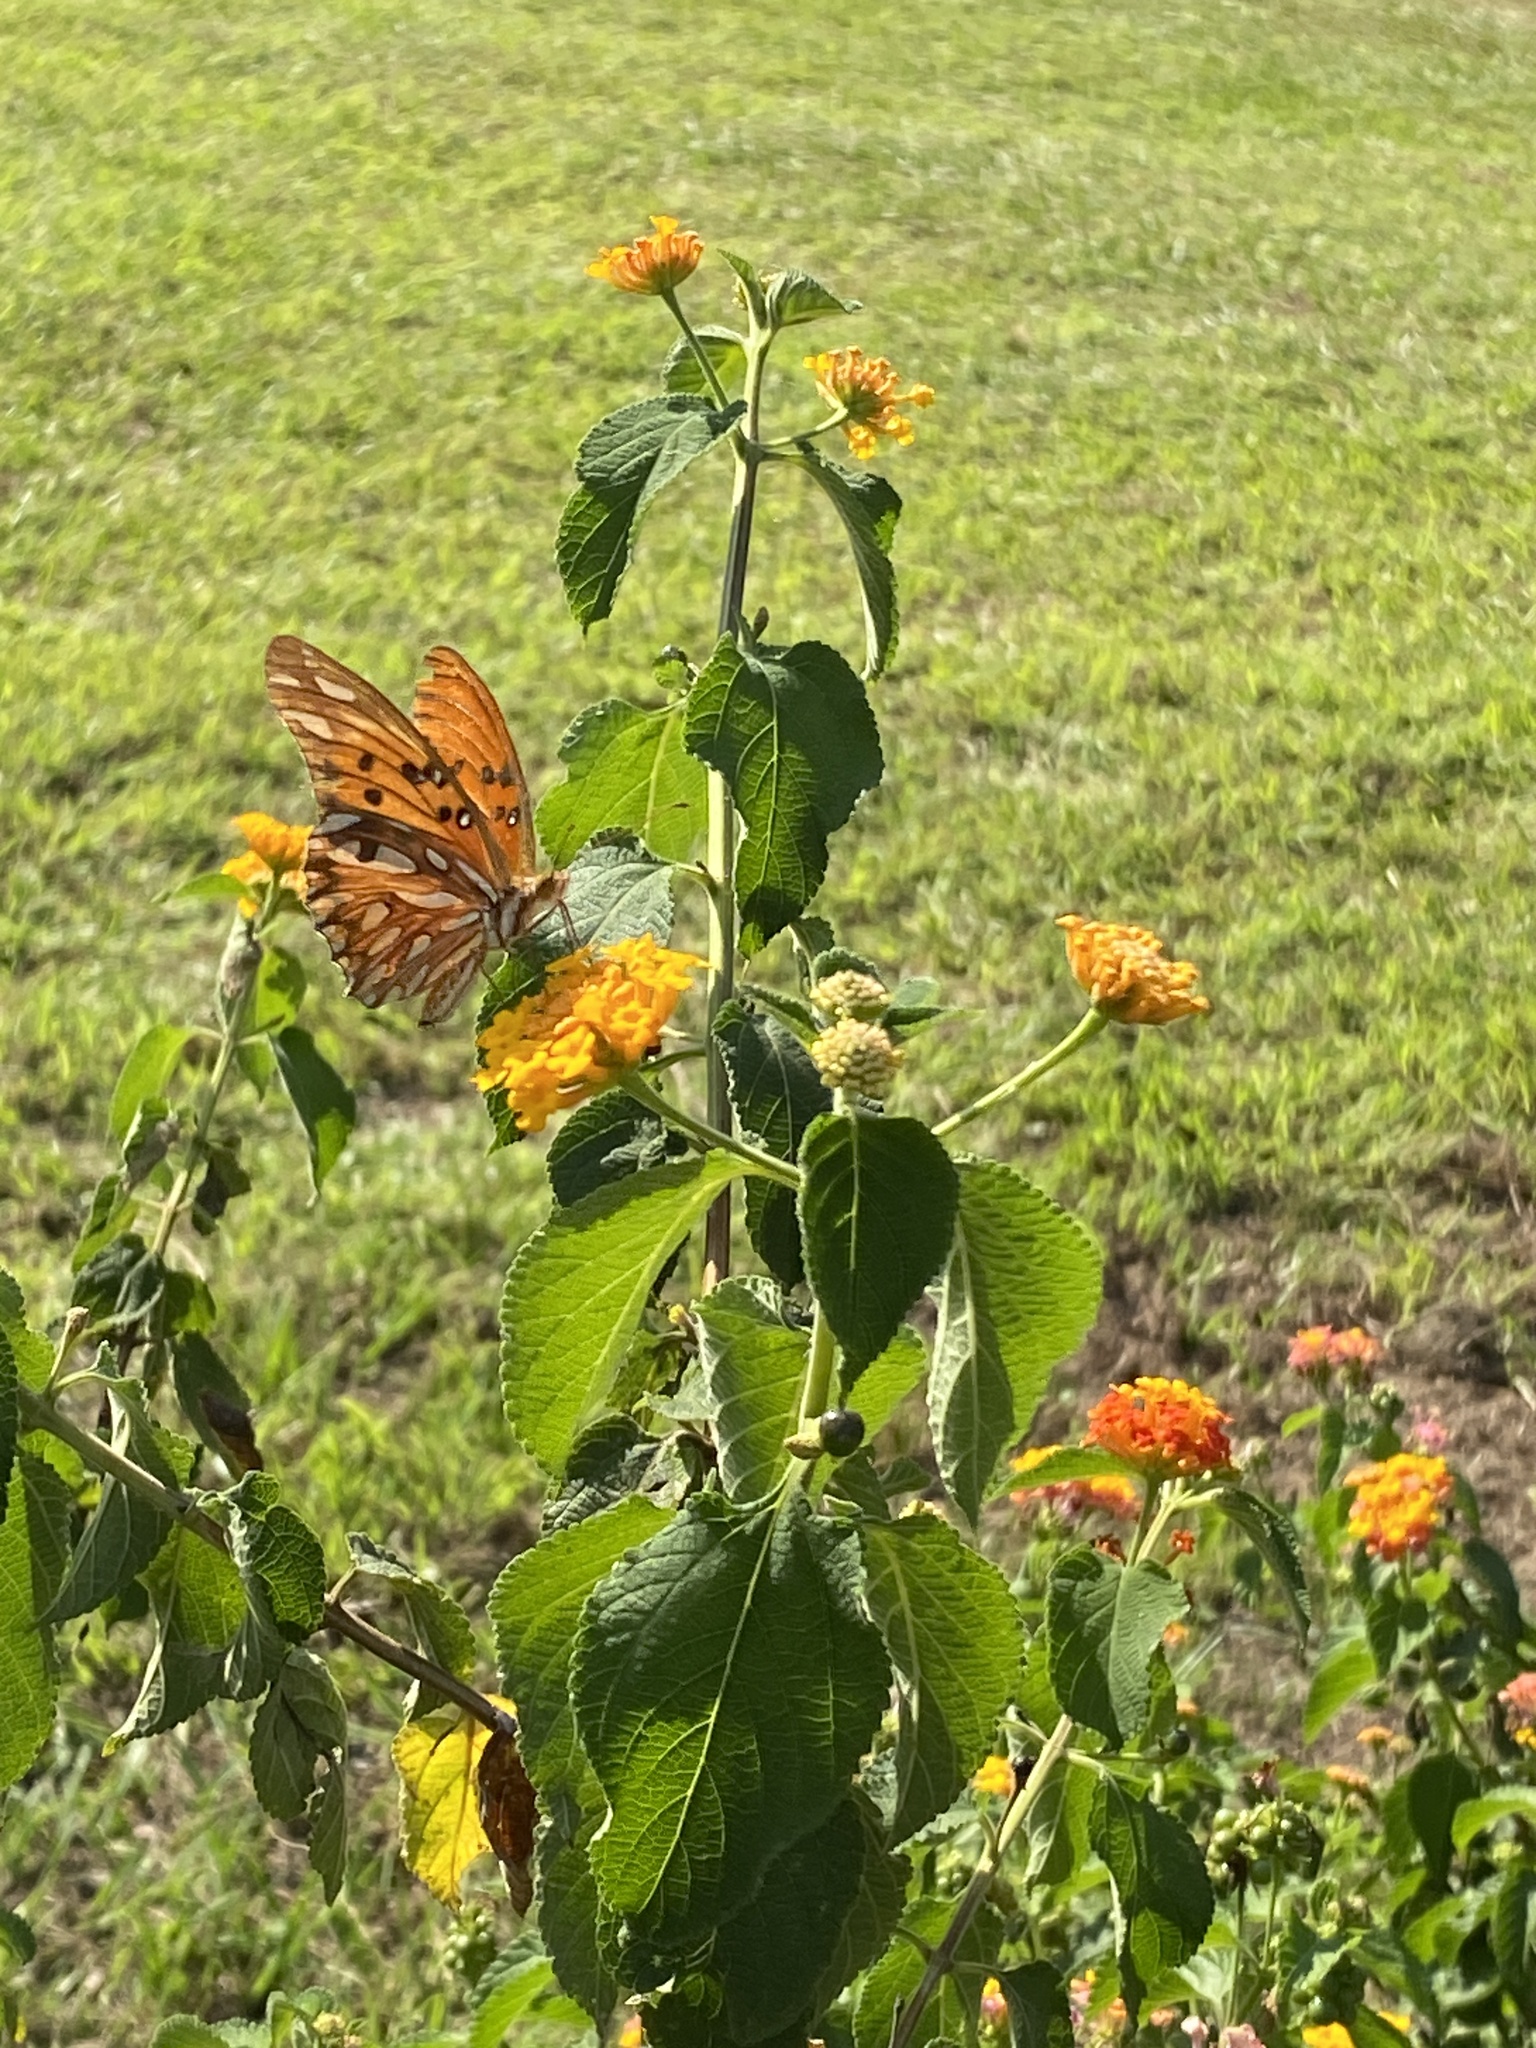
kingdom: Animalia
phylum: Arthropoda
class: Insecta
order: Lepidoptera
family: Nymphalidae
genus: Dione
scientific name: Dione vanillae
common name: Gulf fritillary
